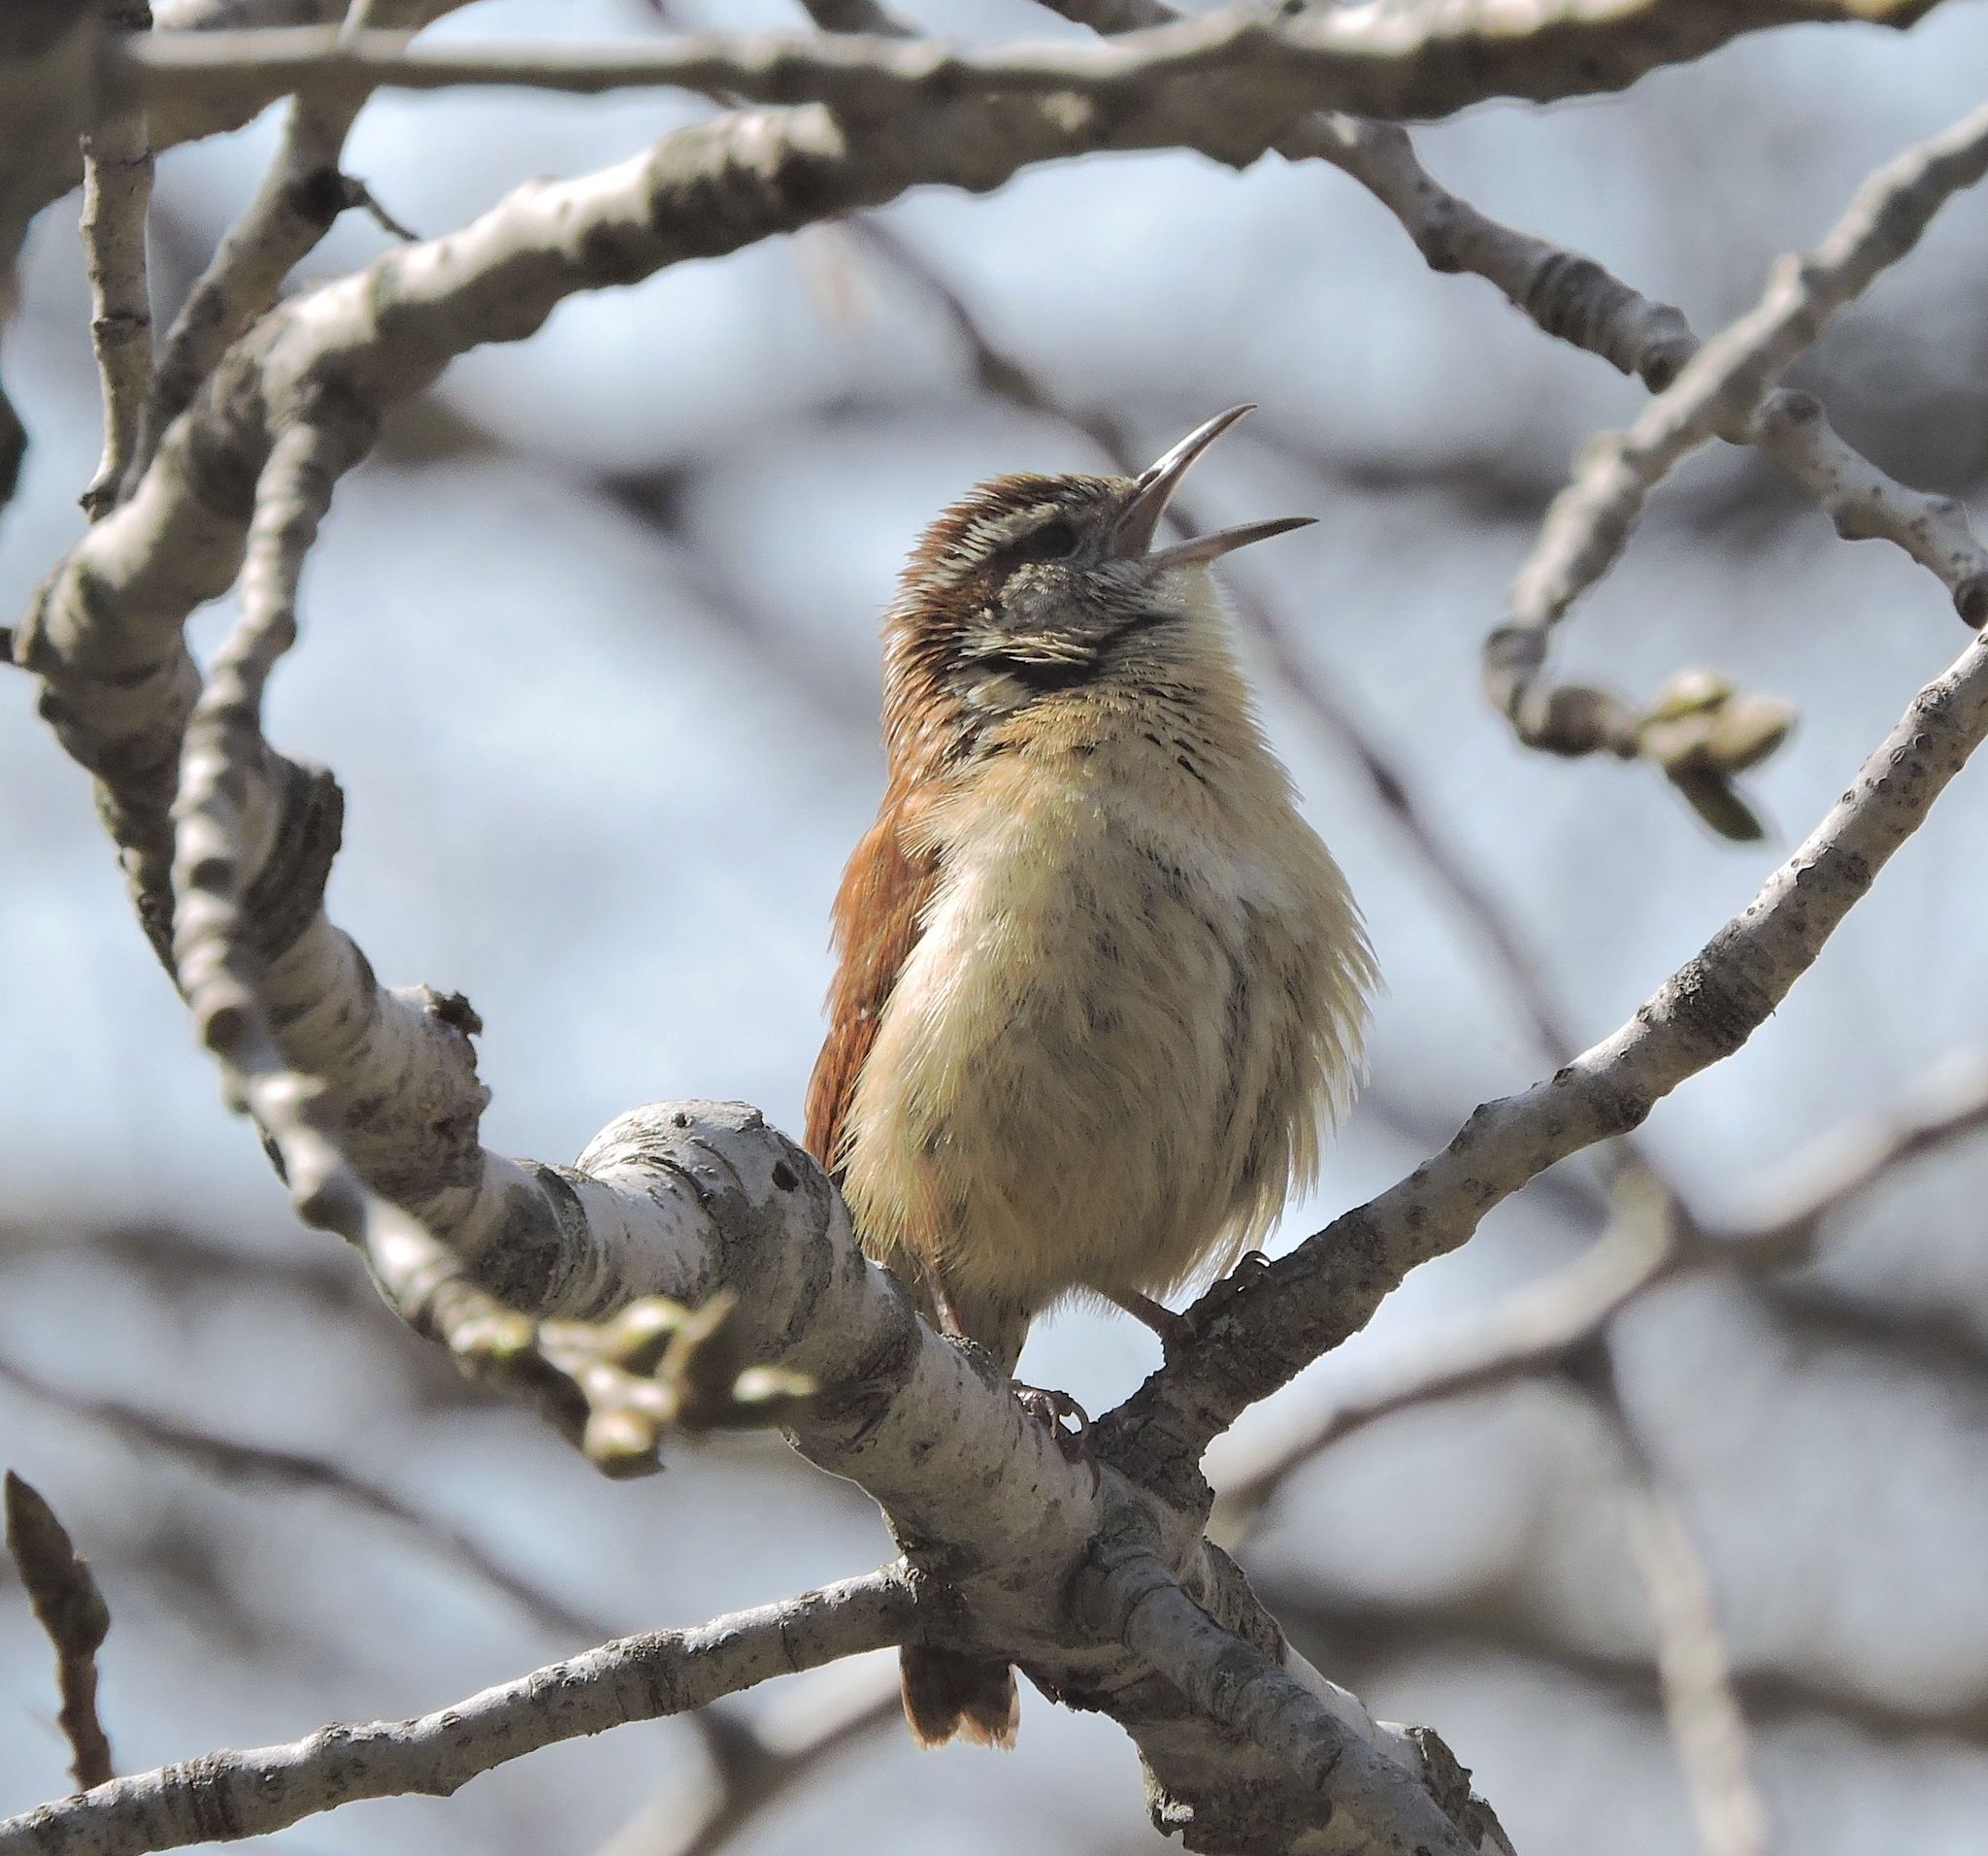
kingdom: Animalia
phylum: Chordata
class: Aves
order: Passeriformes
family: Troglodytidae
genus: Thryothorus
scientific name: Thryothorus ludovicianus
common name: Carolina wren
